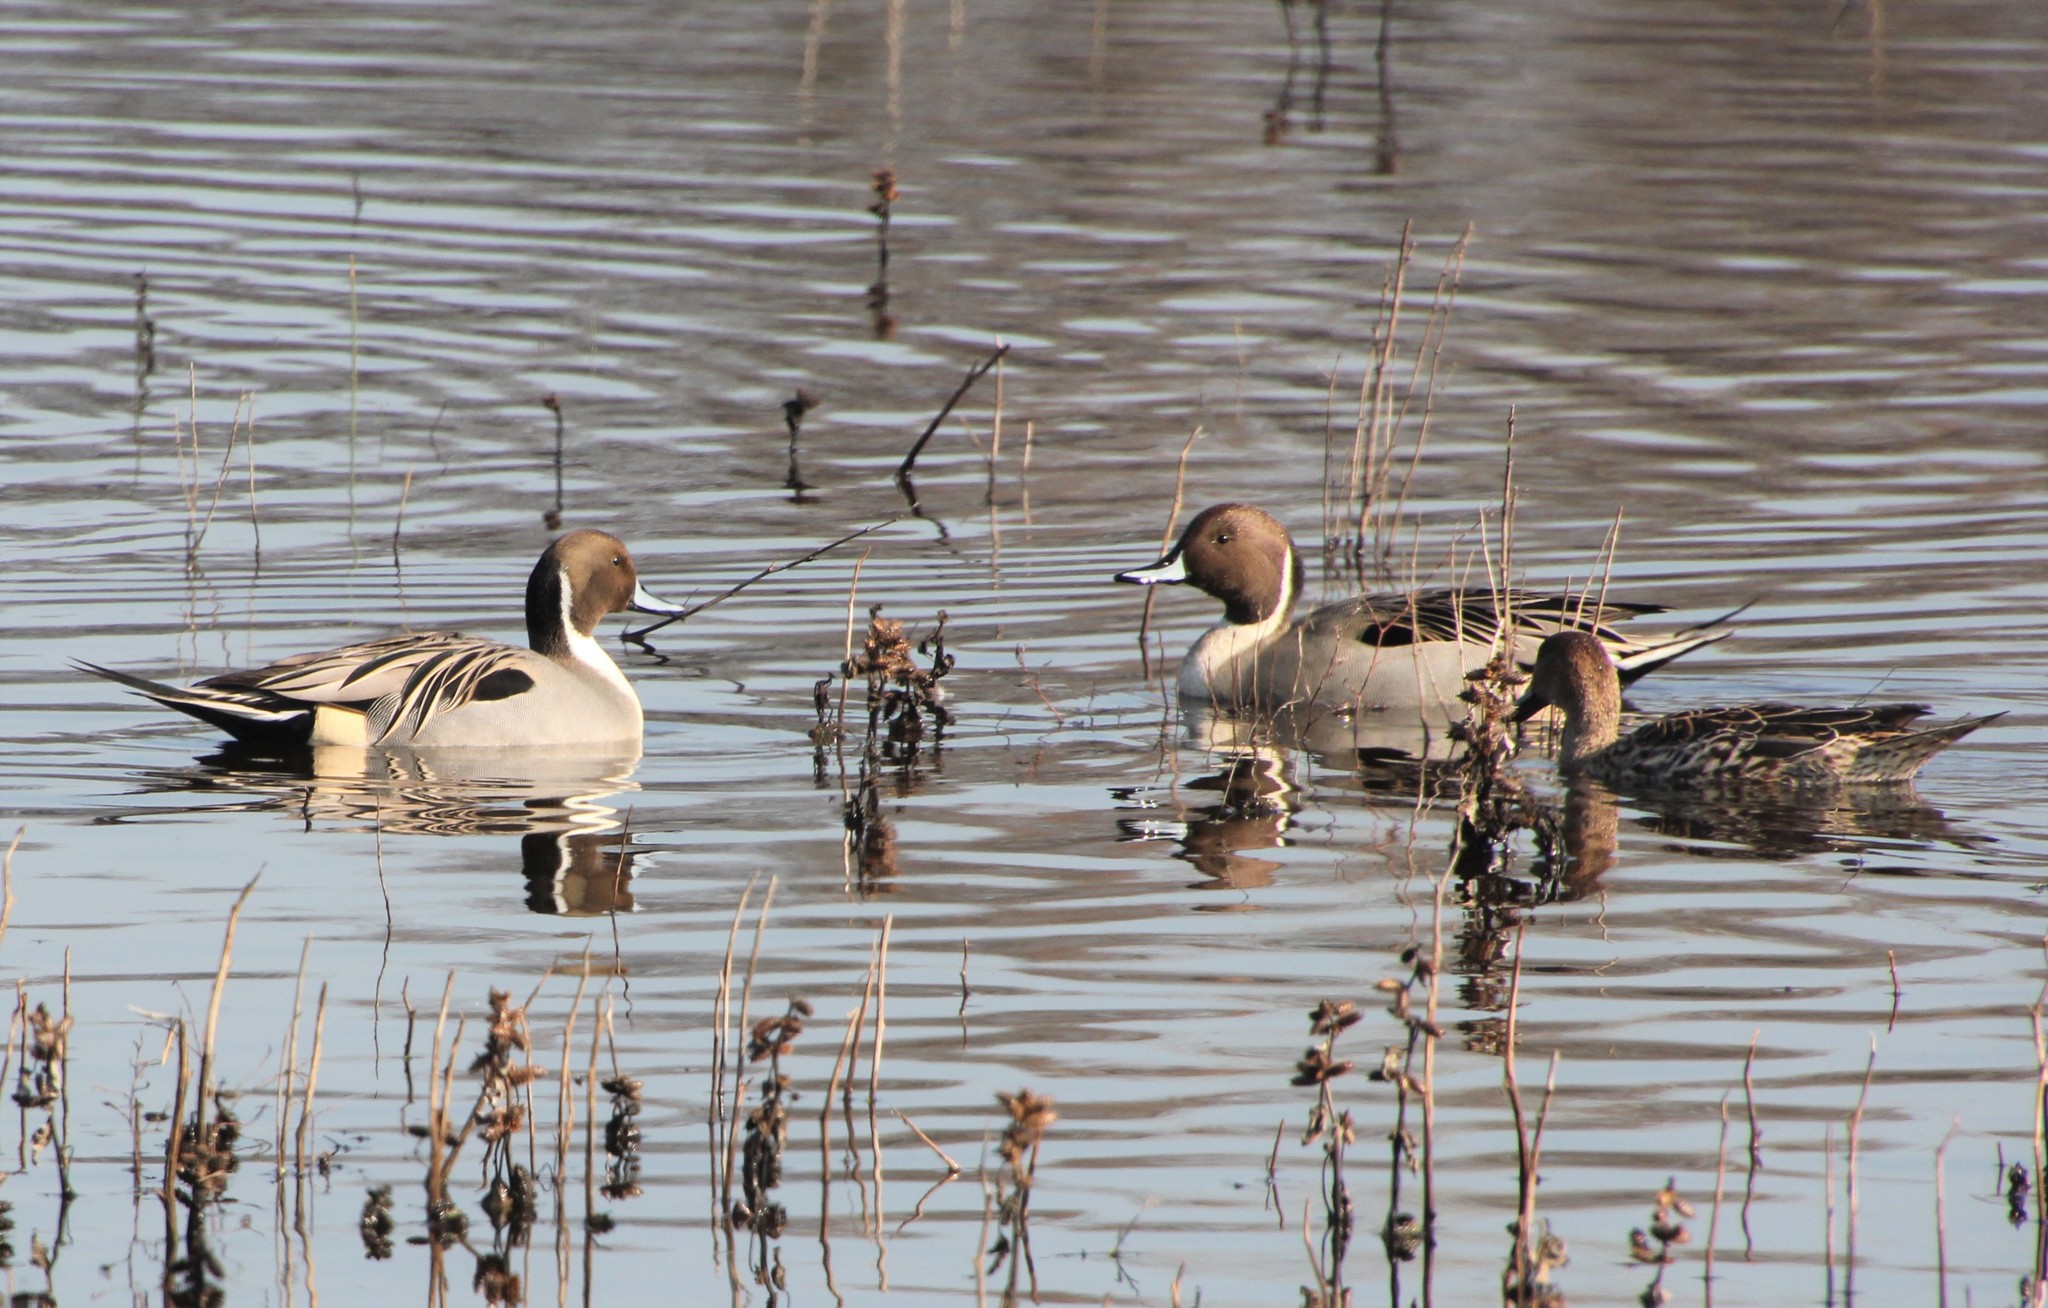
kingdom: Animalia
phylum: Chordata
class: Aves
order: Anseriformes
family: Anatidae
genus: Anas
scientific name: Anas acuta
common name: Northern pintail
